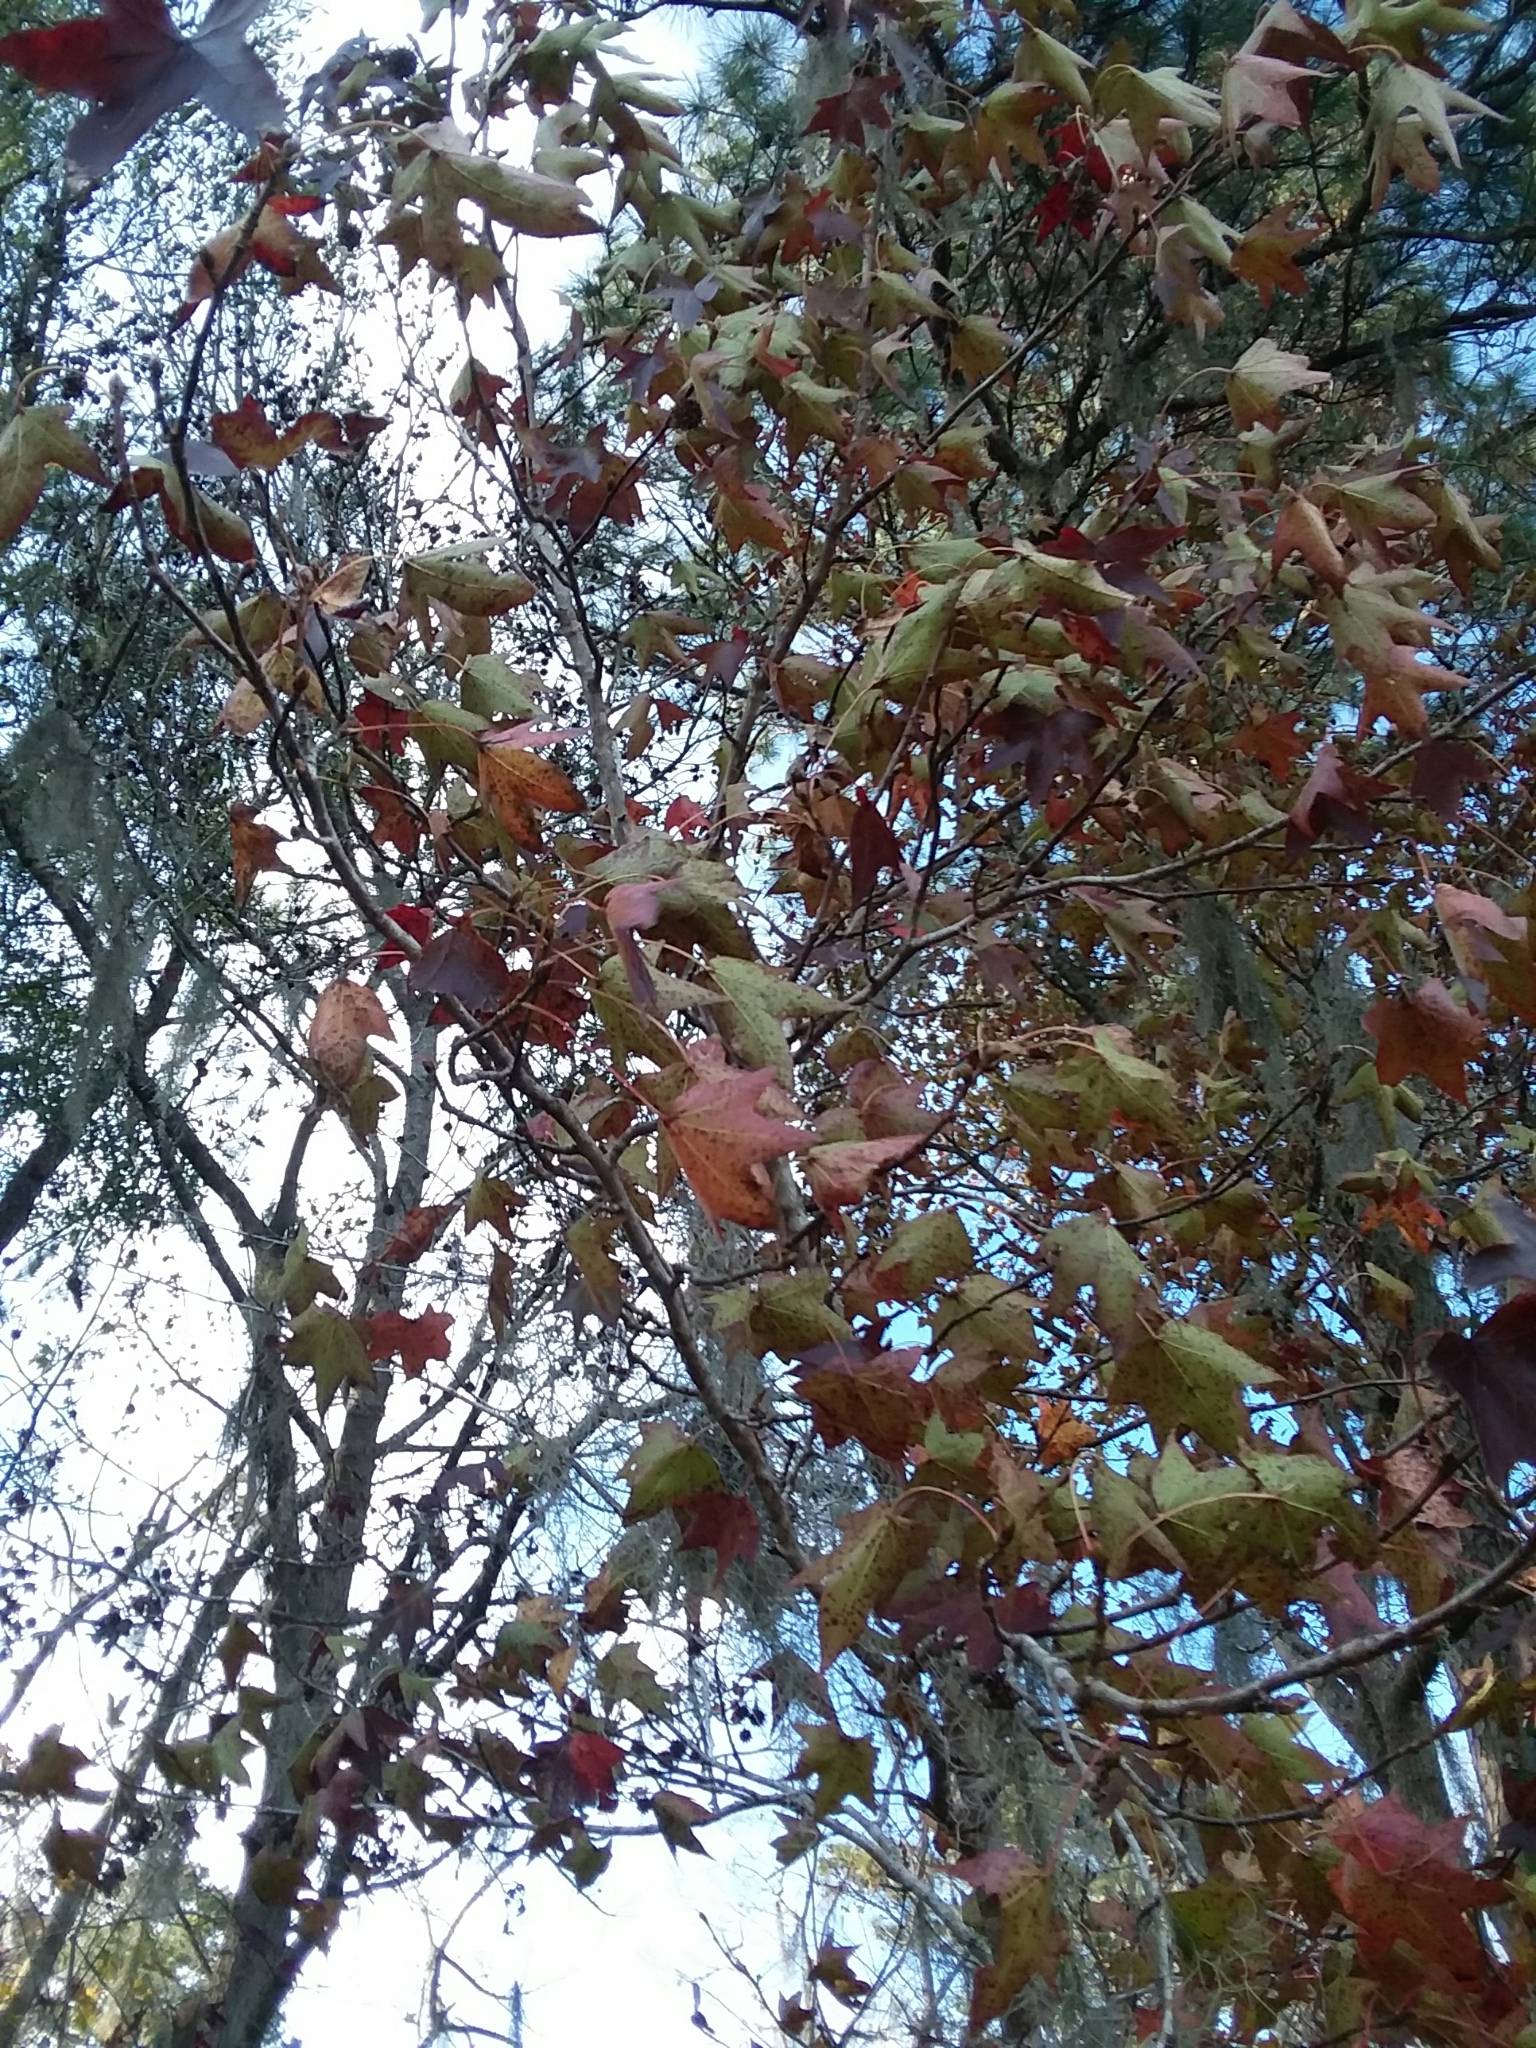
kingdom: Plantae
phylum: Tracheophyta
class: Magnoliopsida
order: Saxifragales
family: Altingiaceae
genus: Liquidambar
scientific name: Liquidambar styraciflua
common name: Sweet gum
